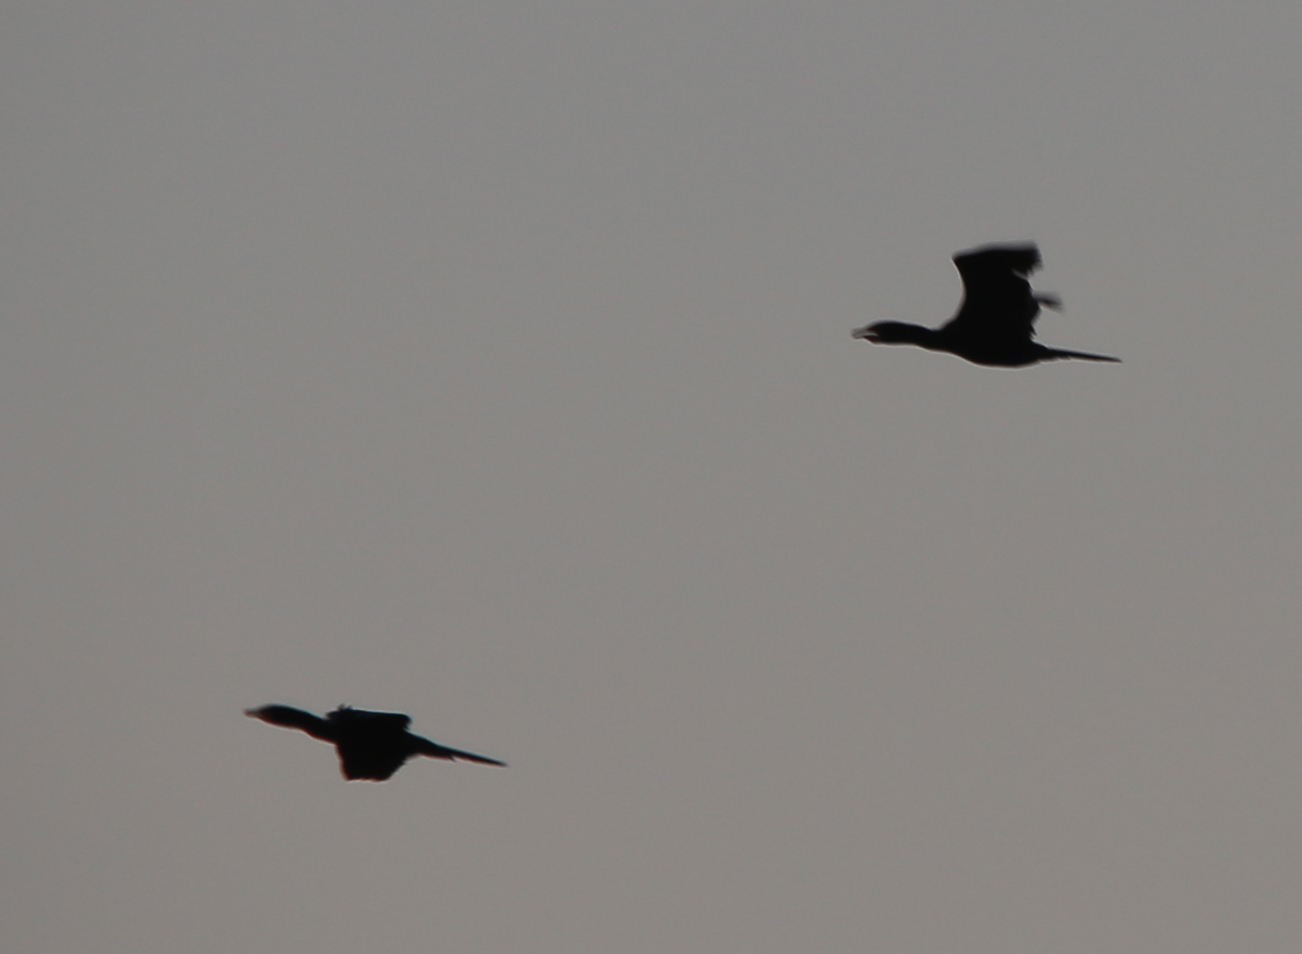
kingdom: Animalia
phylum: Chordata
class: Aves
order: Suliformes
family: Phalacrocoracidae
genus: Microcarbo
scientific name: Microcarbo africanus
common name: Long-tailed cormorant
